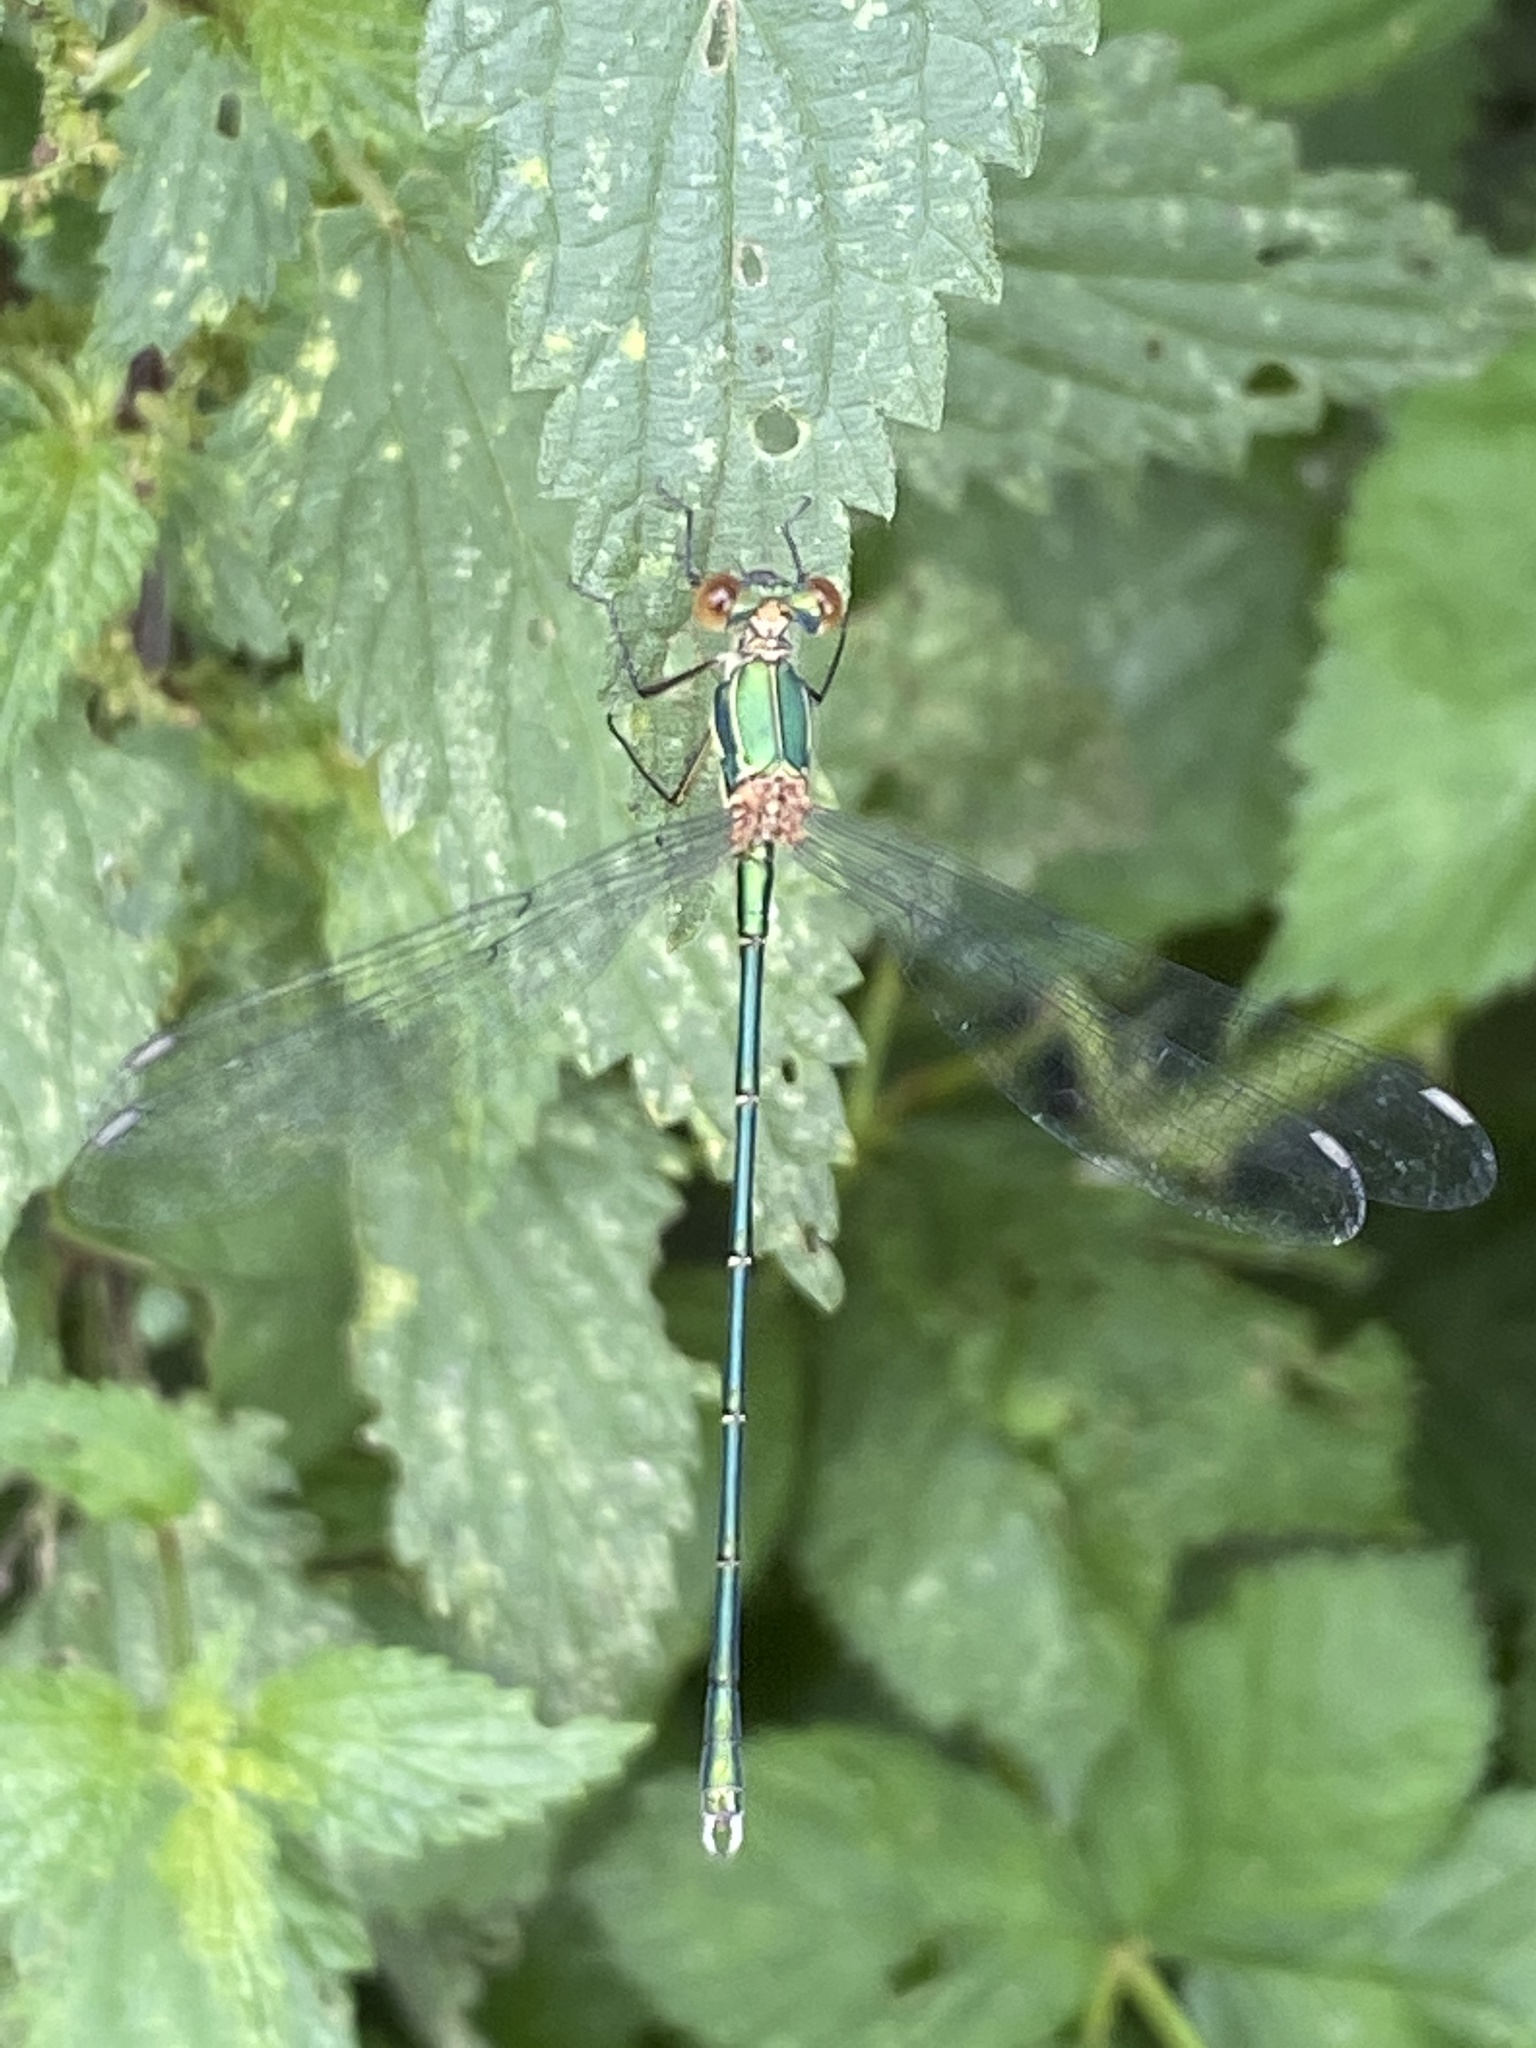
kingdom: Animalia
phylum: Arthropoda
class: Insecta
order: Odonata
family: Lestidae
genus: Chalcolestes
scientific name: Chalcolestes viridis
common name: Green emerald damselfly
